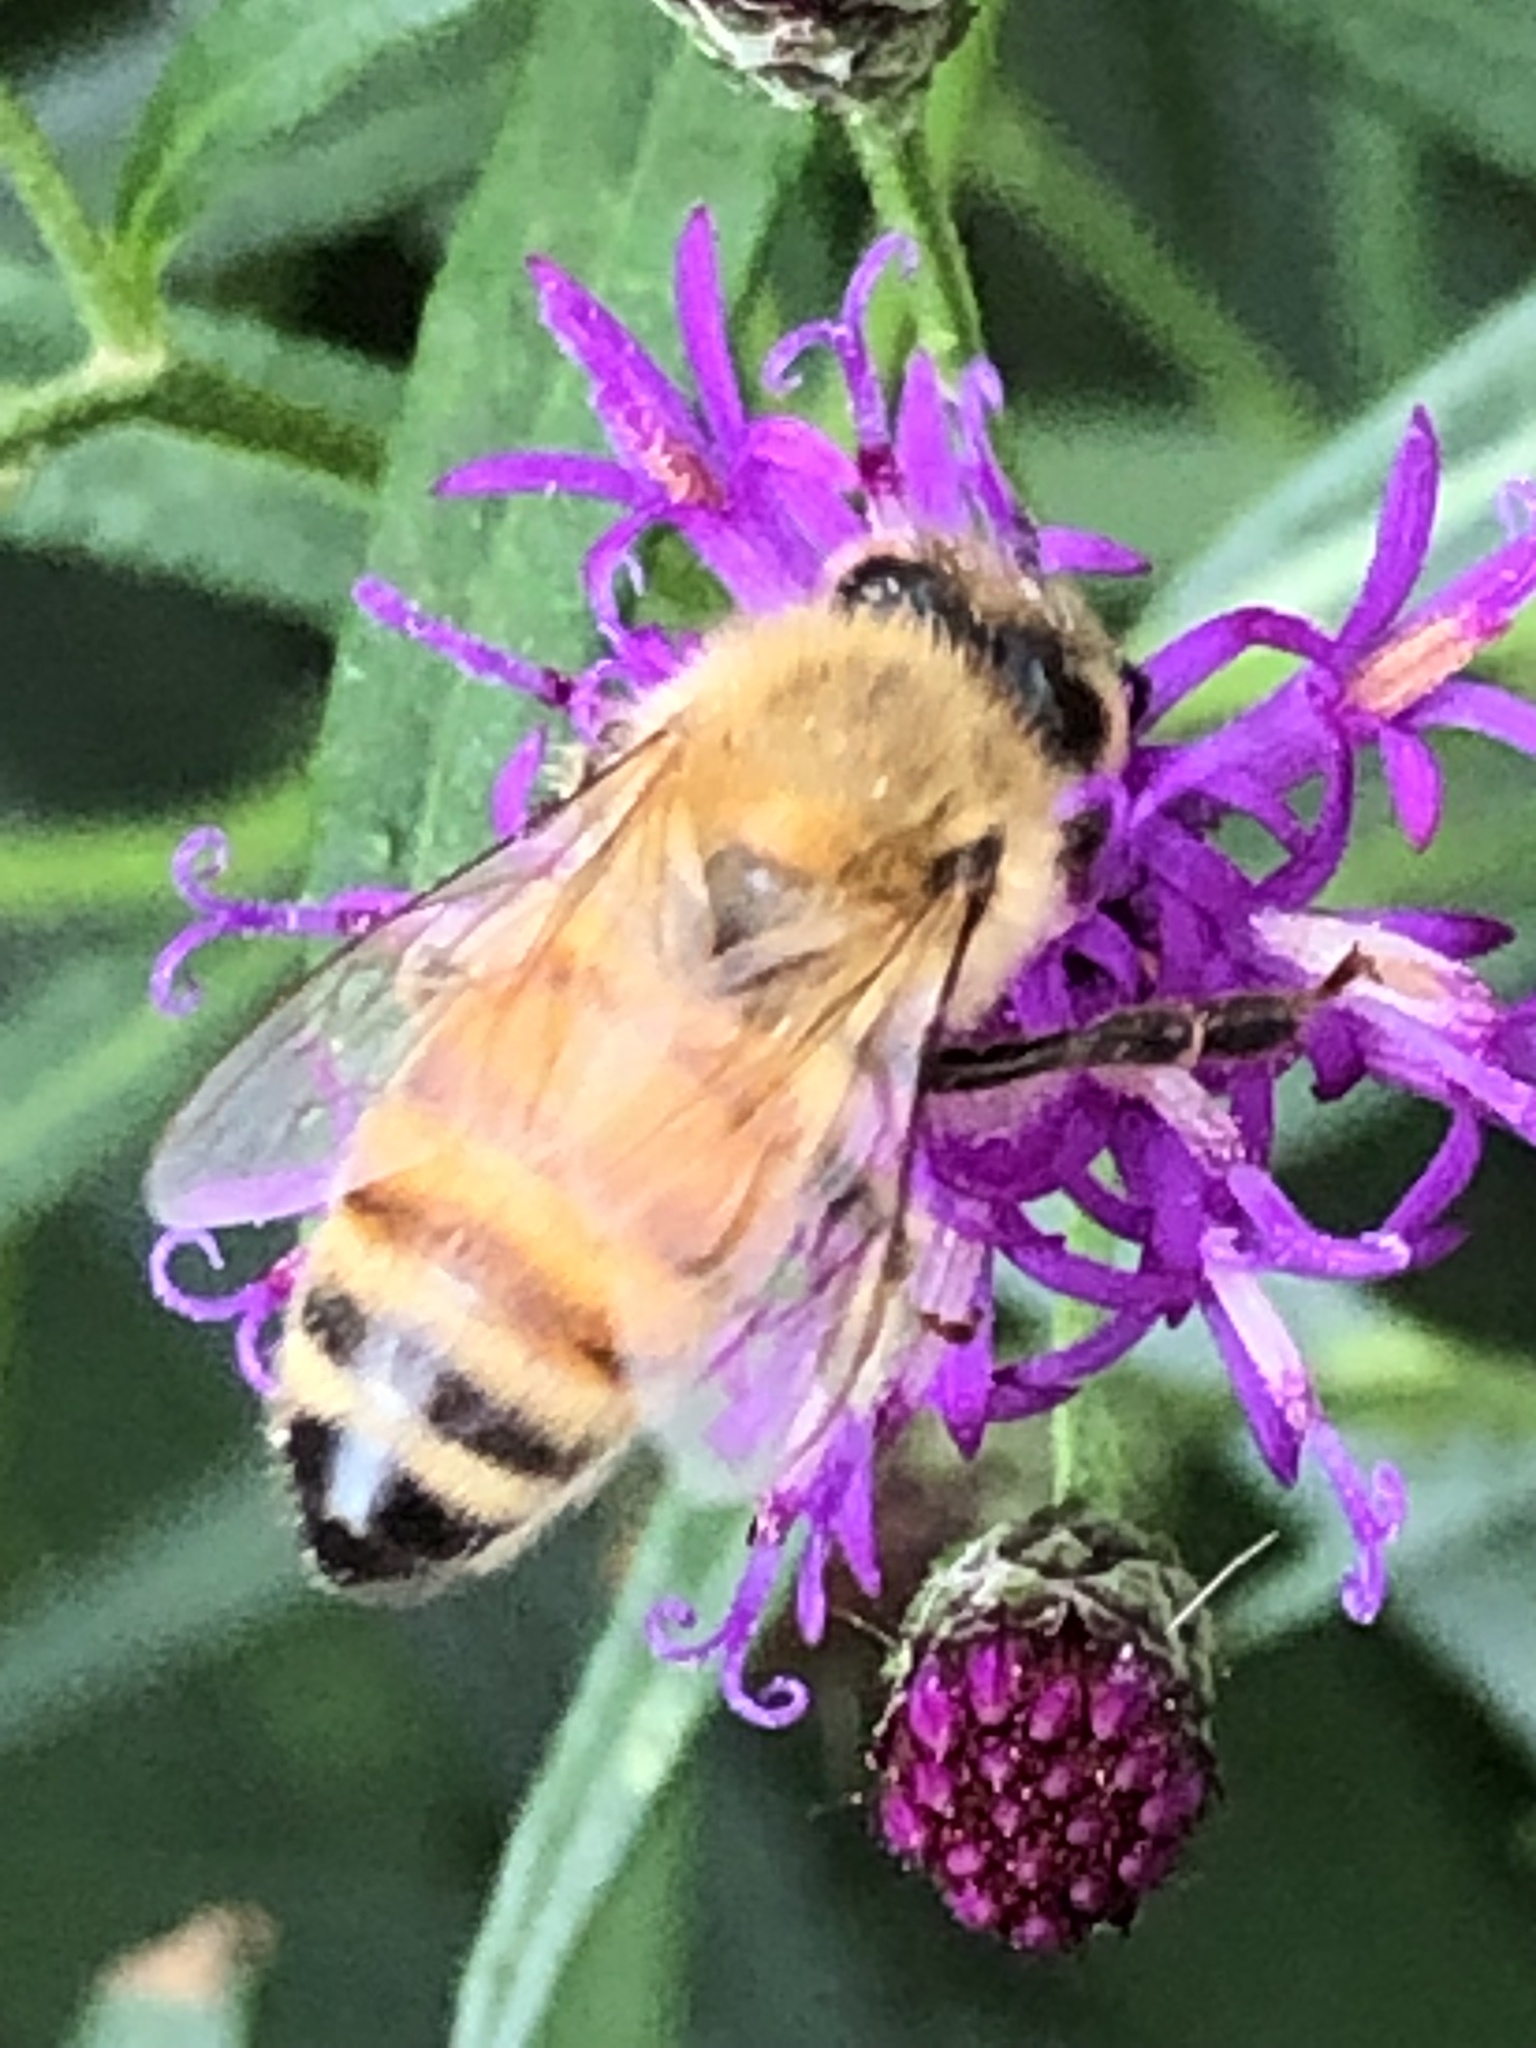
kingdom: Animalia
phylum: Arthropoda
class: Insecta
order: Hymenoptera
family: Apidae
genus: Apis
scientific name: Apis mellifera
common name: Honey bee
